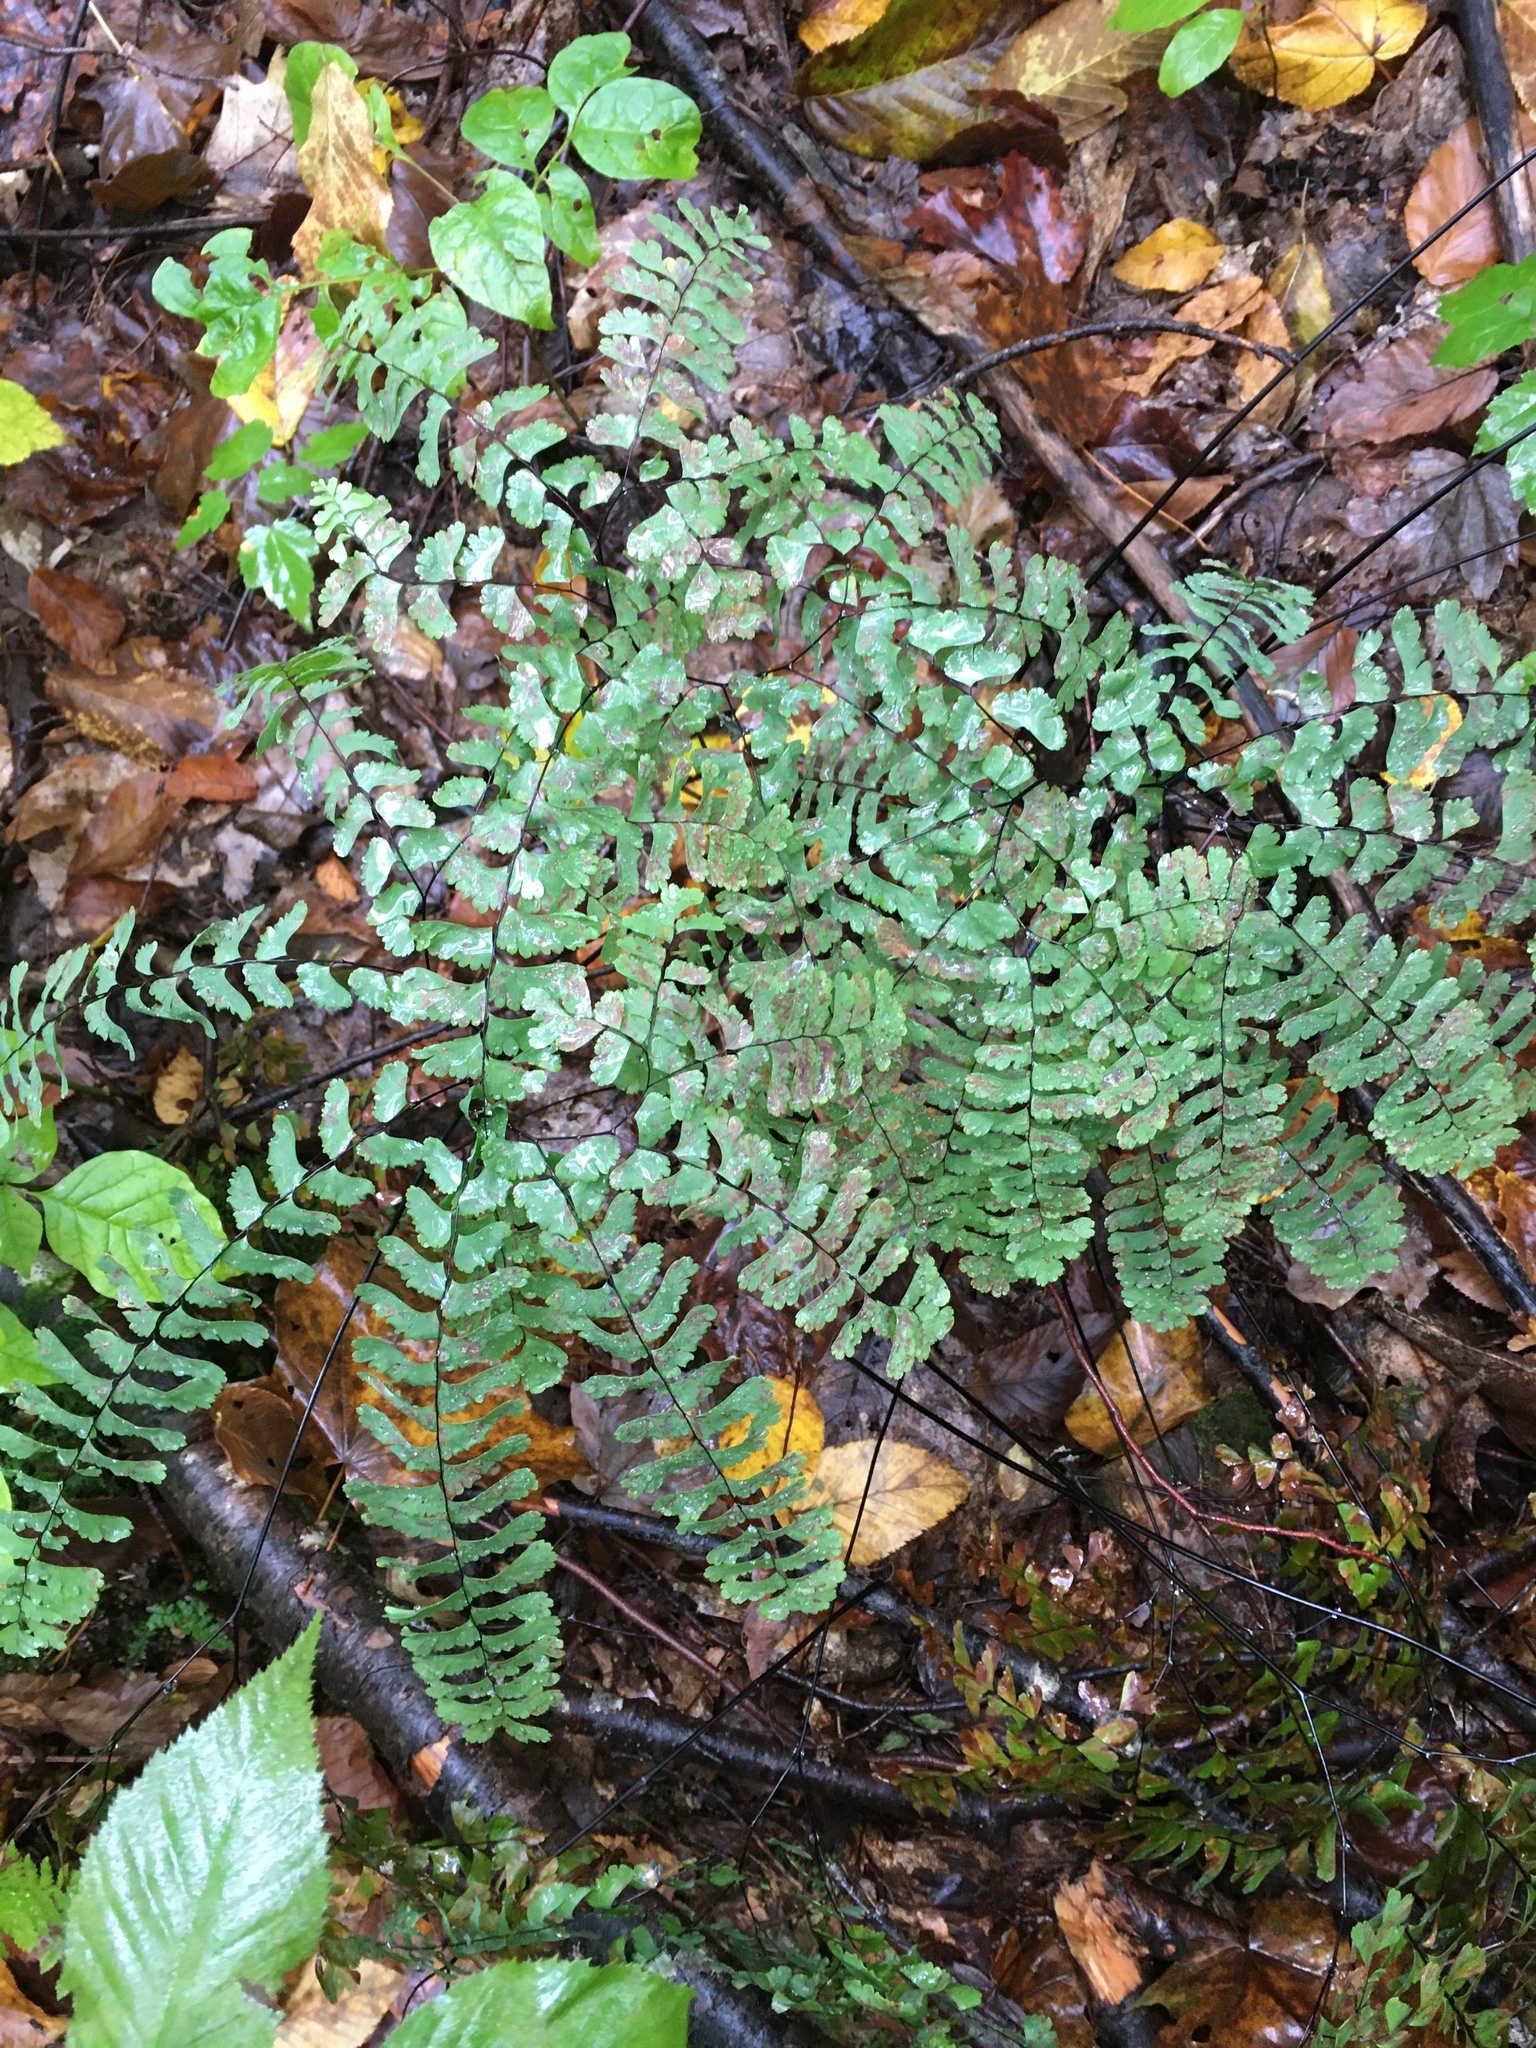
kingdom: Plantae
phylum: Tracheophyta
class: Polypodiopsida
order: Polypodiales
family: Pteridaceae
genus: Adiantum
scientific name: Adiantum pedatum
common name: Five-finger fern
